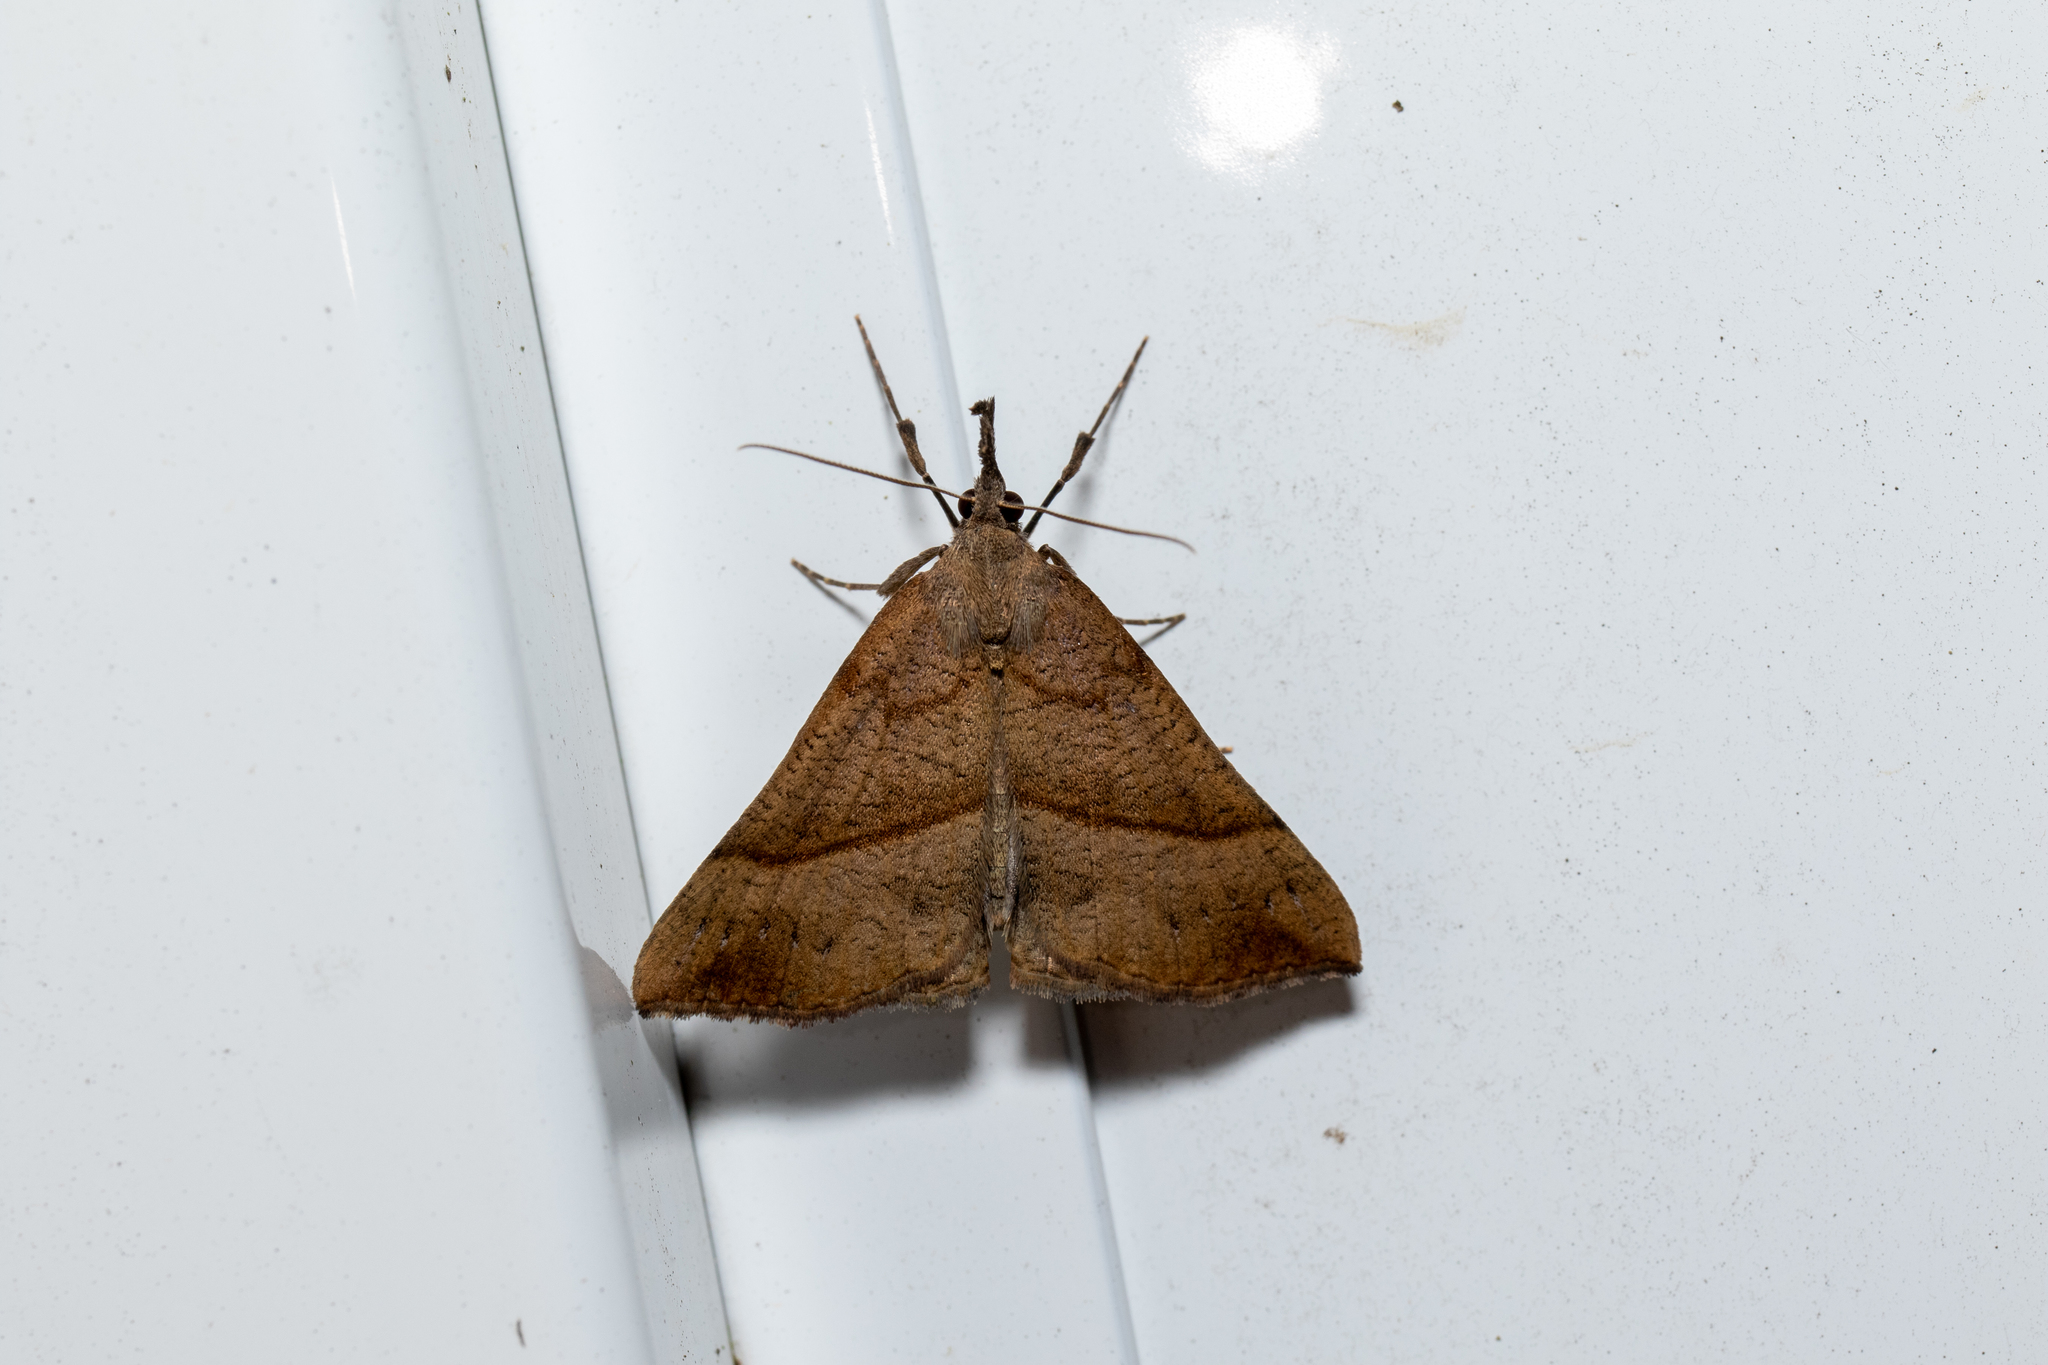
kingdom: Animalia
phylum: Arthropoda
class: Insecta
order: Lepidoptera
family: Erebidae
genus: Hypena
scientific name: Hypena proboscidalis
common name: Snout
